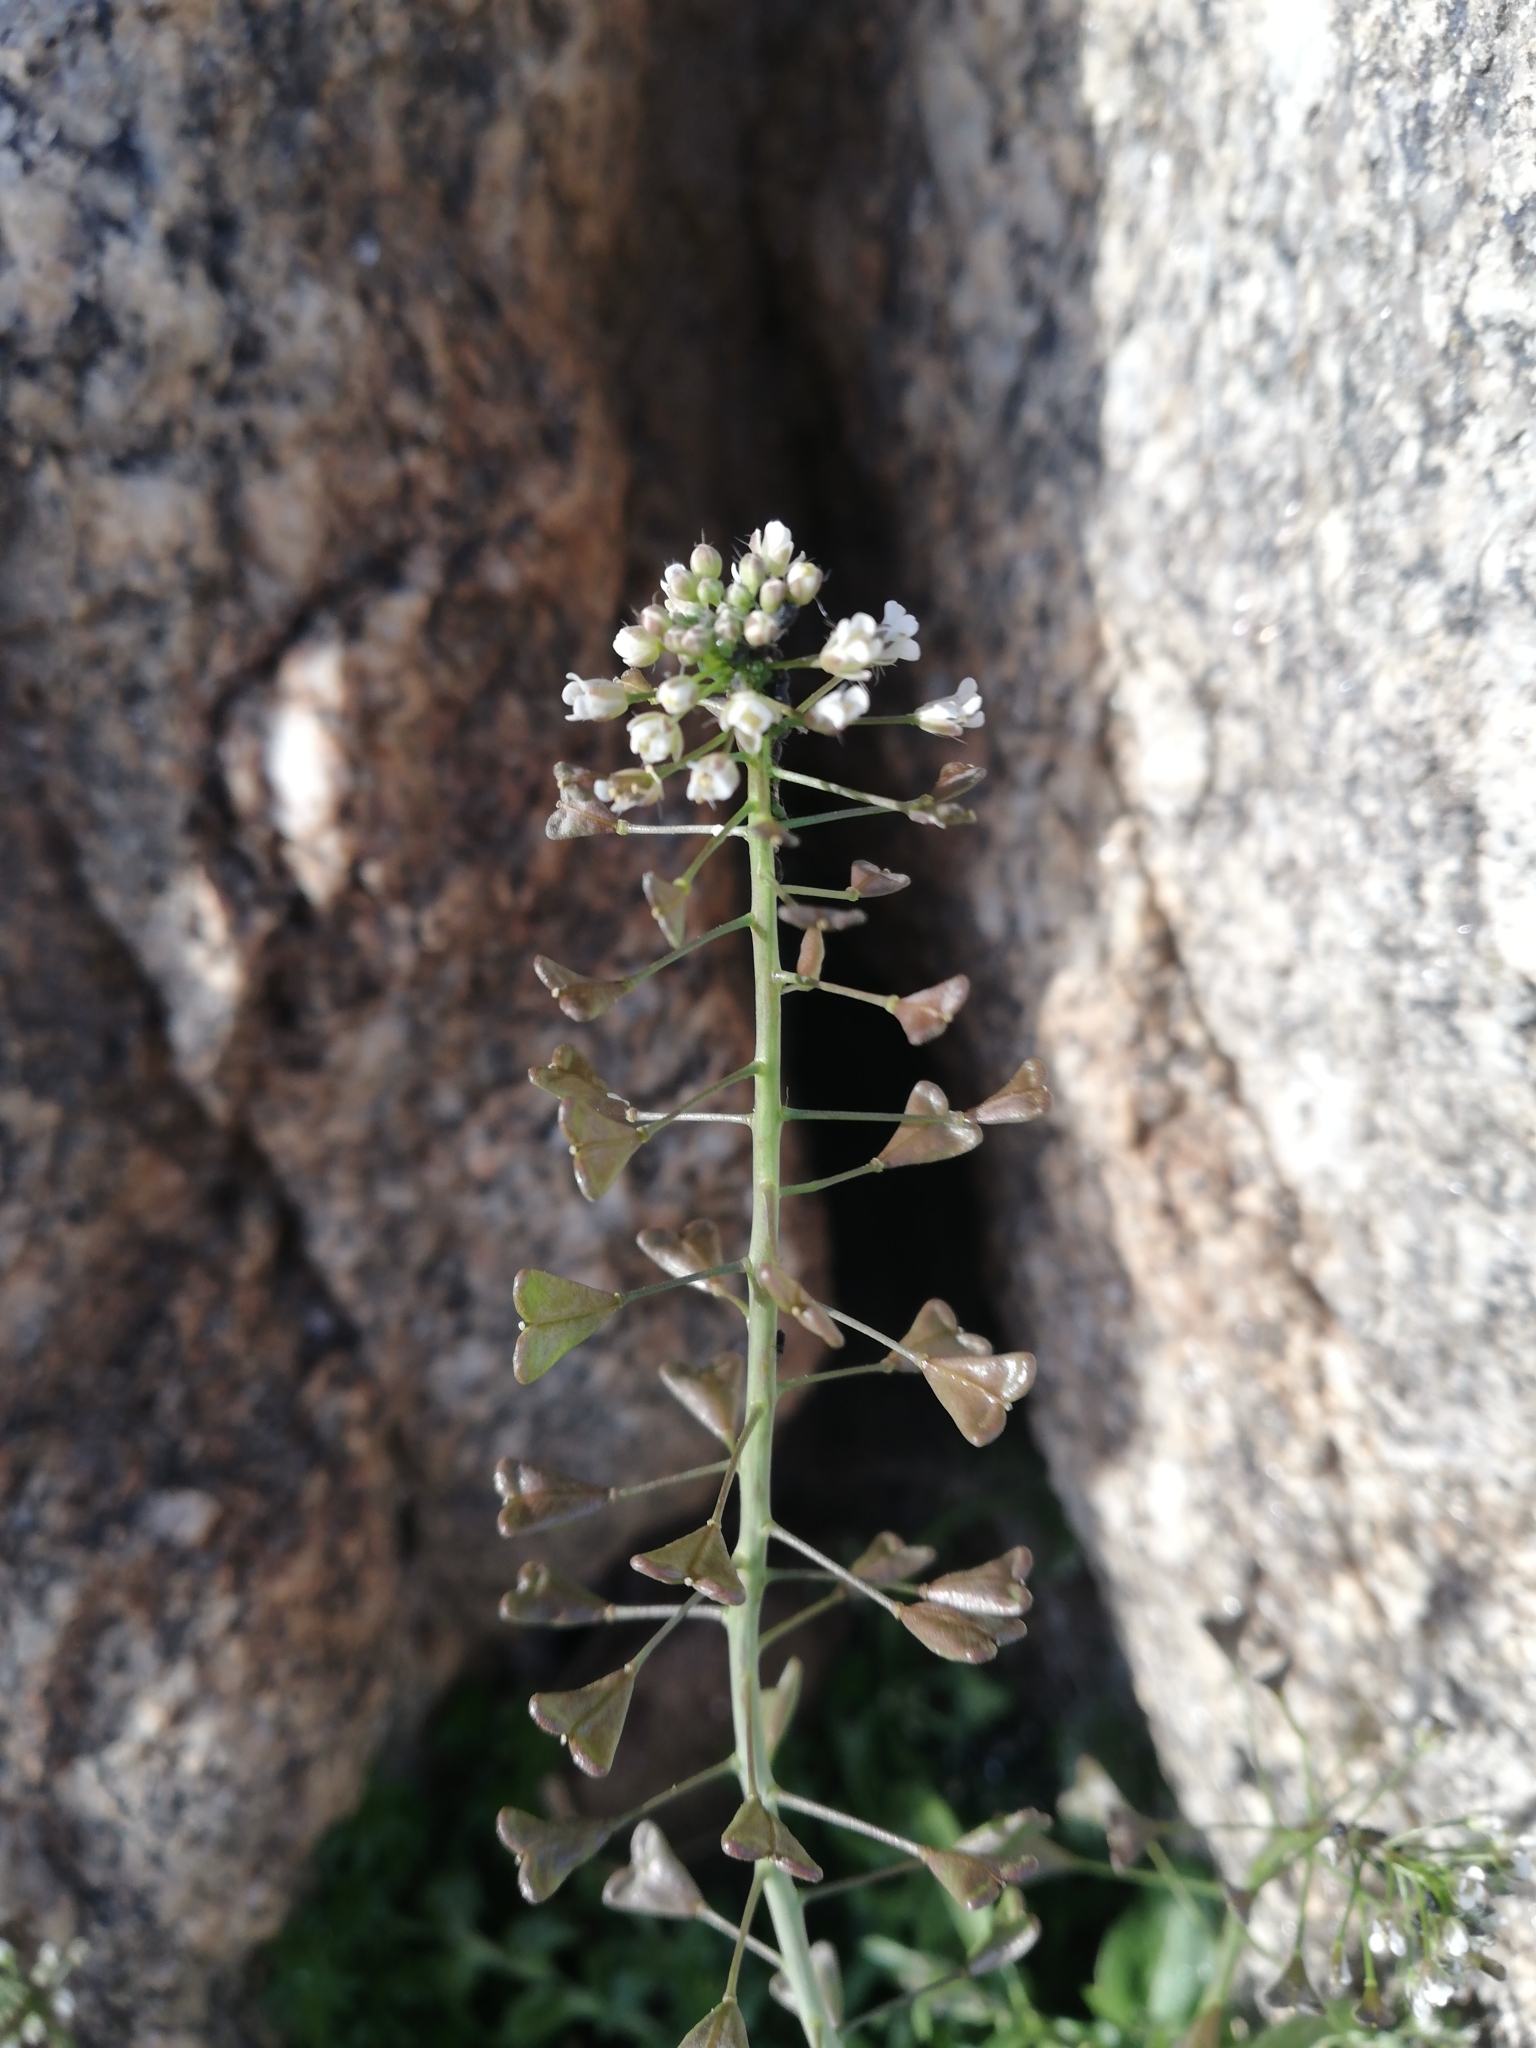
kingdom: Plantae
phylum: Tracheophyta
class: Magnoliopsida
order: Brassicales
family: Brassicaceae
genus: Capsella
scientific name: Capsella bursa-pastoris
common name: Shepherd's purse
